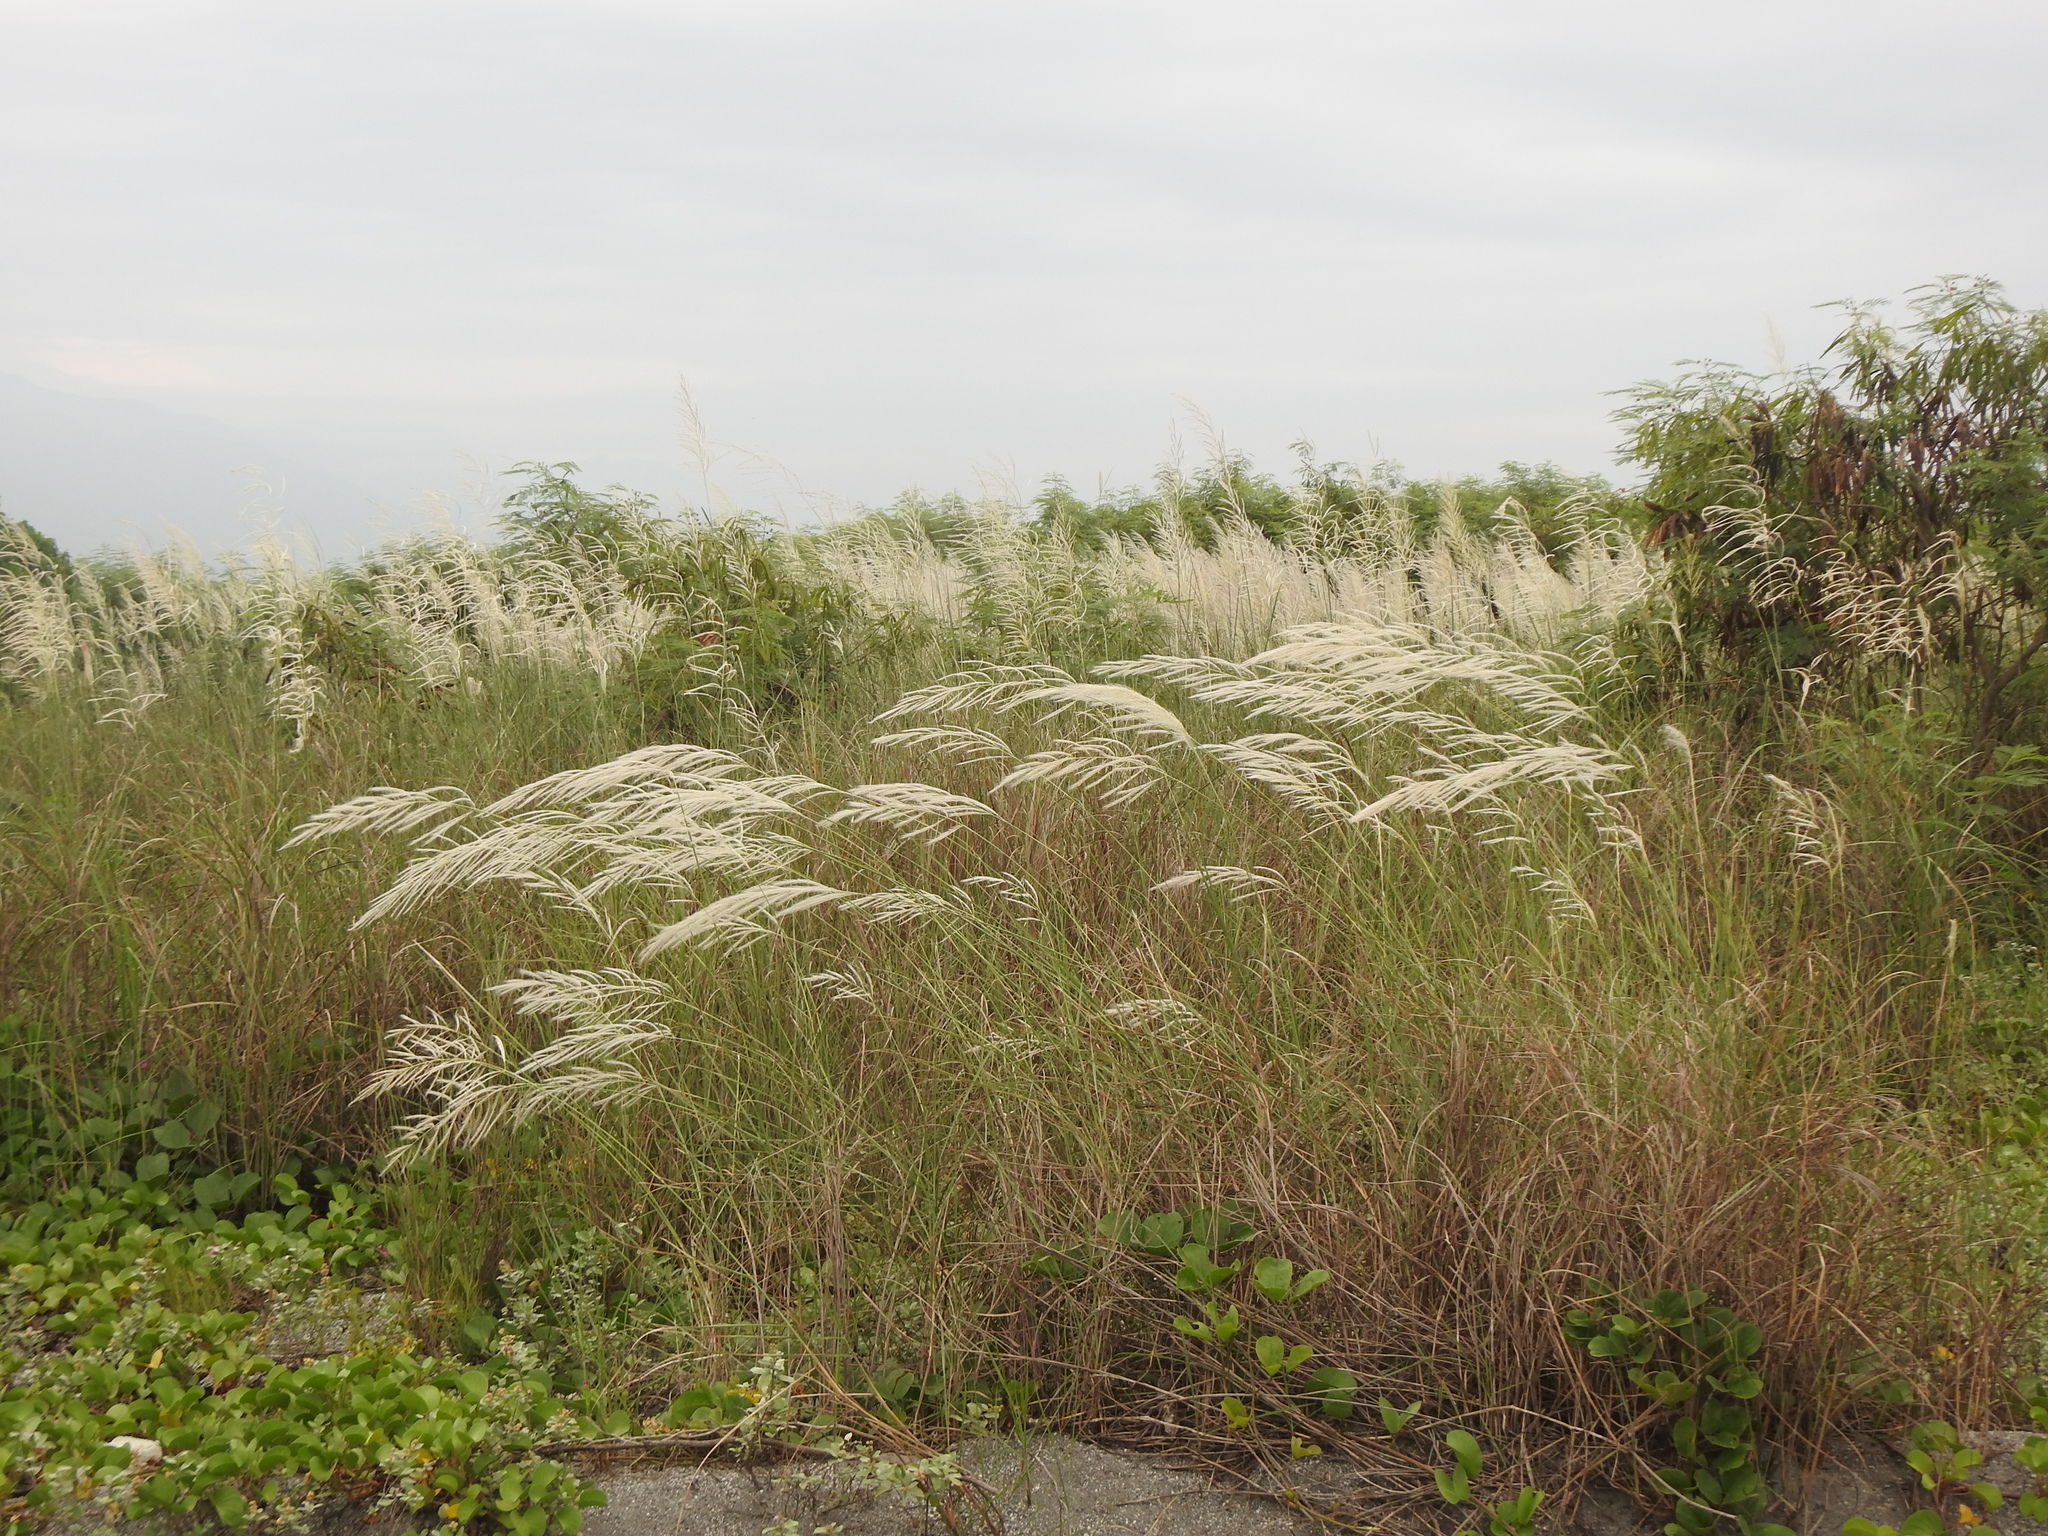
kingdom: Plantae
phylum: Tracheophyta
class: Liliopsida
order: Poales
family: Poaceae
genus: Saccharum
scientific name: Saccharum spontaneum
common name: Wild sugarcane
